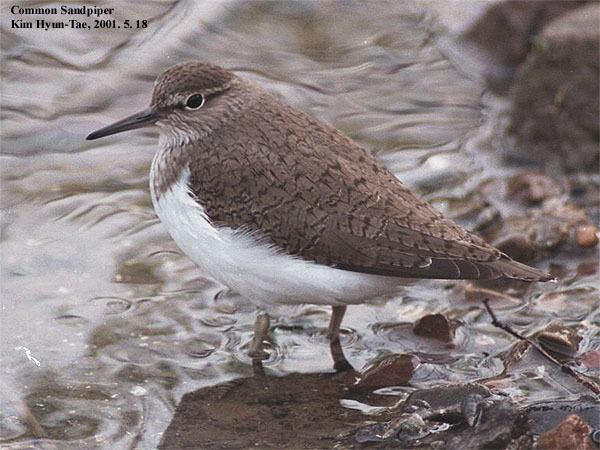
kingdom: Animalia
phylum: Chordata
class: Aves
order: Charadriiformes
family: Scolopacidae
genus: Actitis
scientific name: Actitis hypoleucos
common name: Common sandpiper
